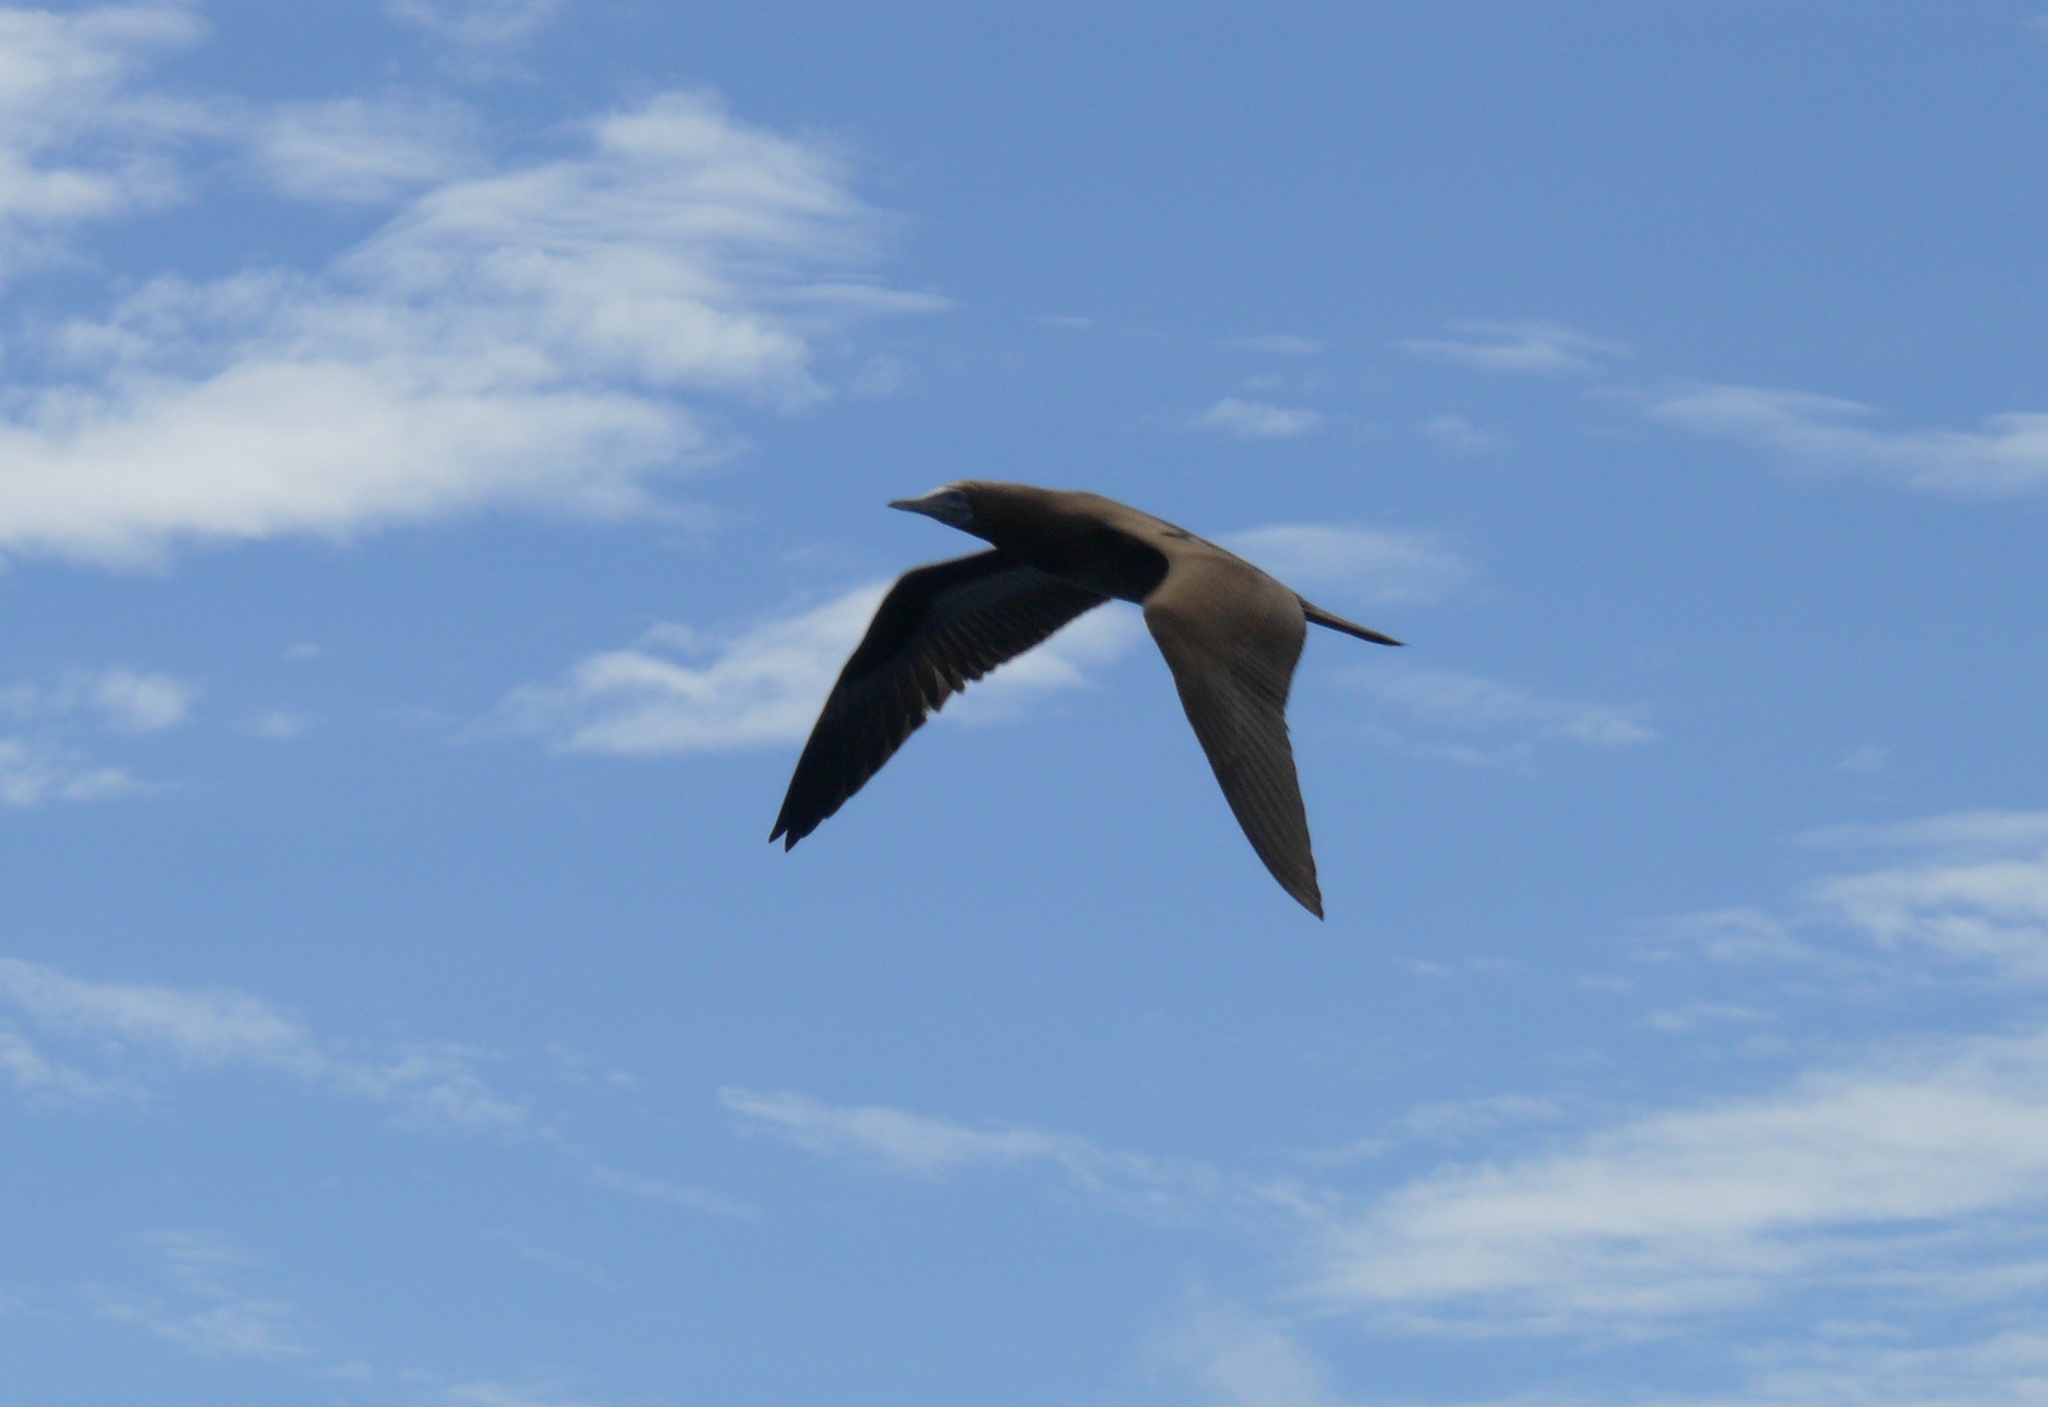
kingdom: Animalia
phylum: Chordata
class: Aves
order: Suliformes
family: Sulidae
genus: Sula
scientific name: Sula leucogaster
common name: Brown booby
